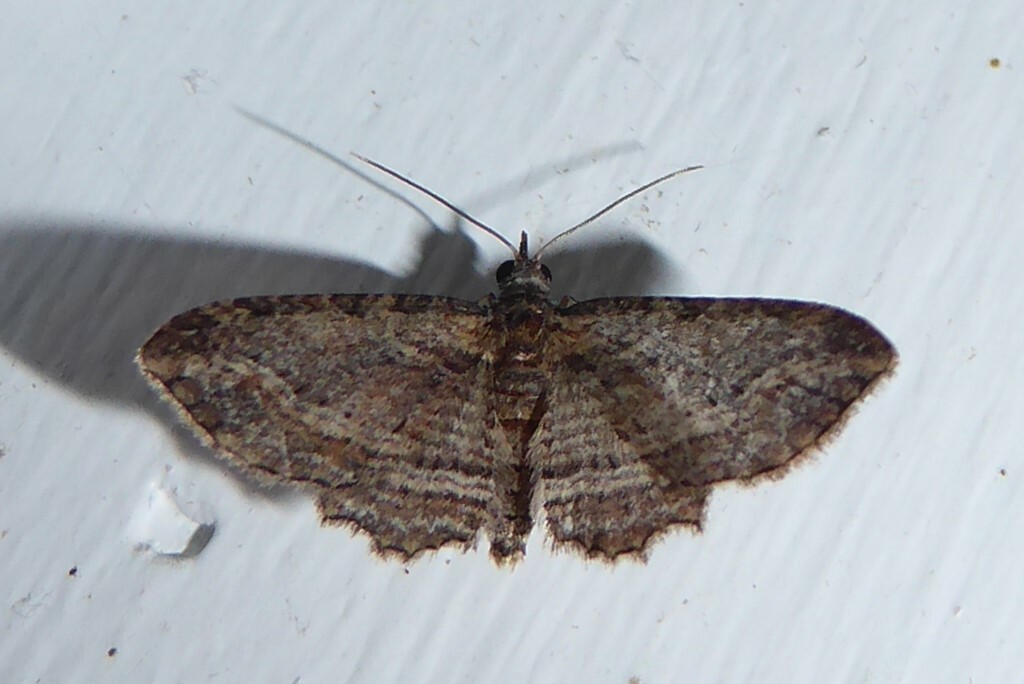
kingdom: Animalia
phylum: Arthropoda
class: Insecta
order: Lepidoptera
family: Geometridae
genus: Chloroclystis
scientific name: Chloroclystis filata
